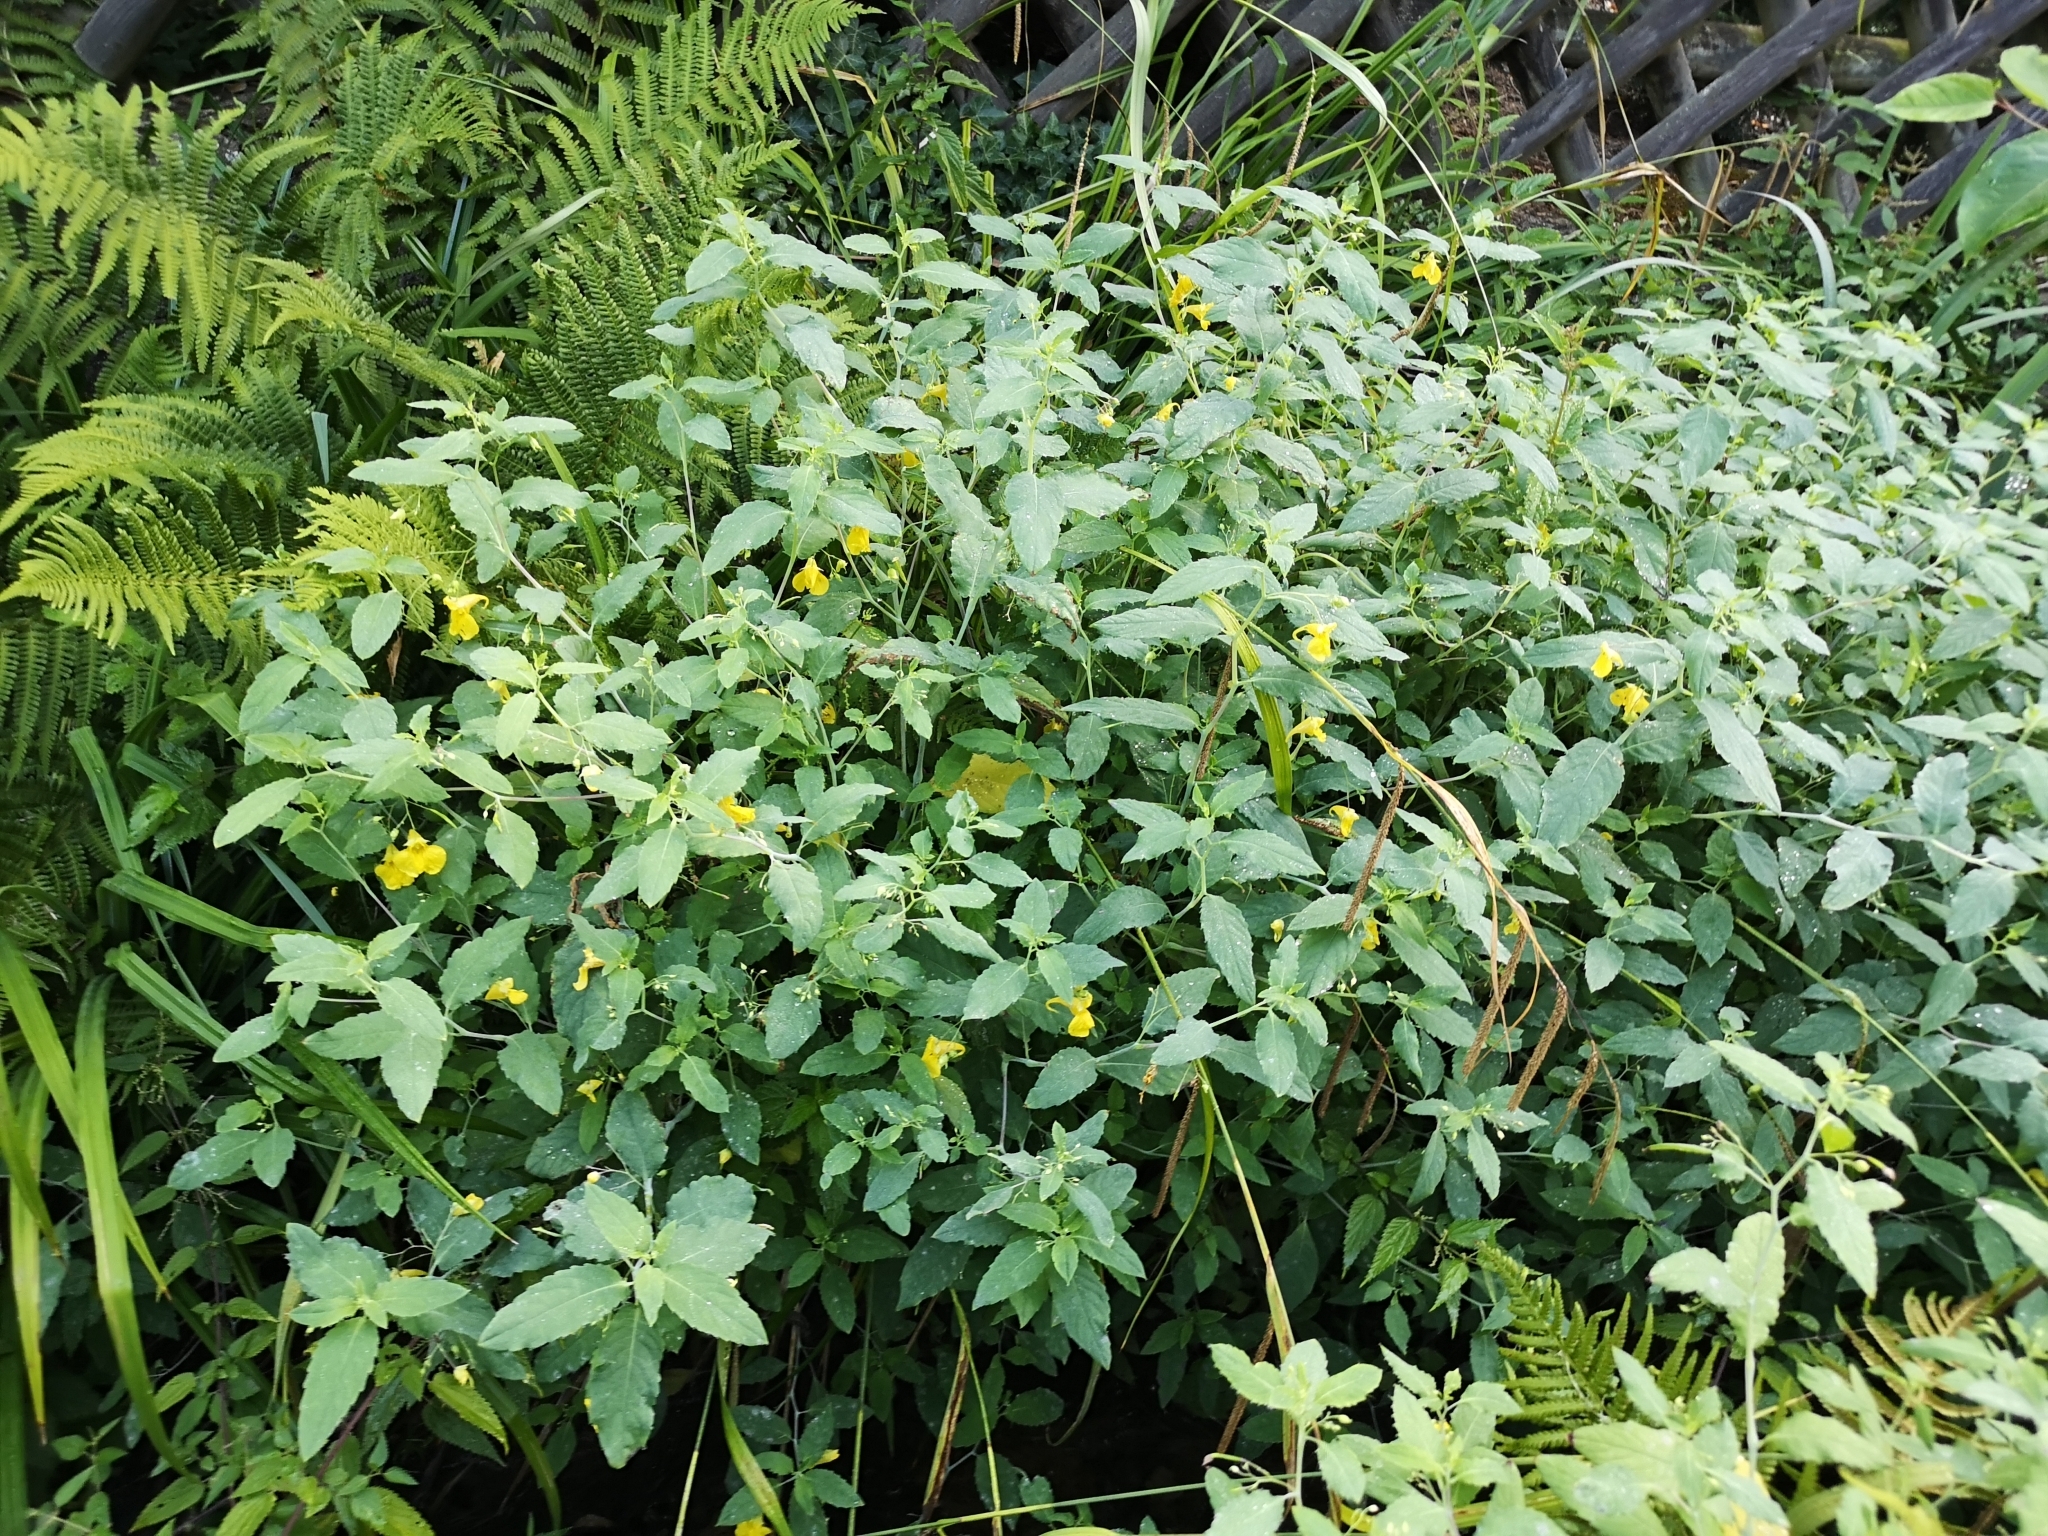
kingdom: Plantae
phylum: Tracheophyta
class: Magnoliopsida
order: Ericales
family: Balsaminaceae
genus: Impatiens
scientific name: Impatiens noli-tangere
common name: Touch-me-not balsam
